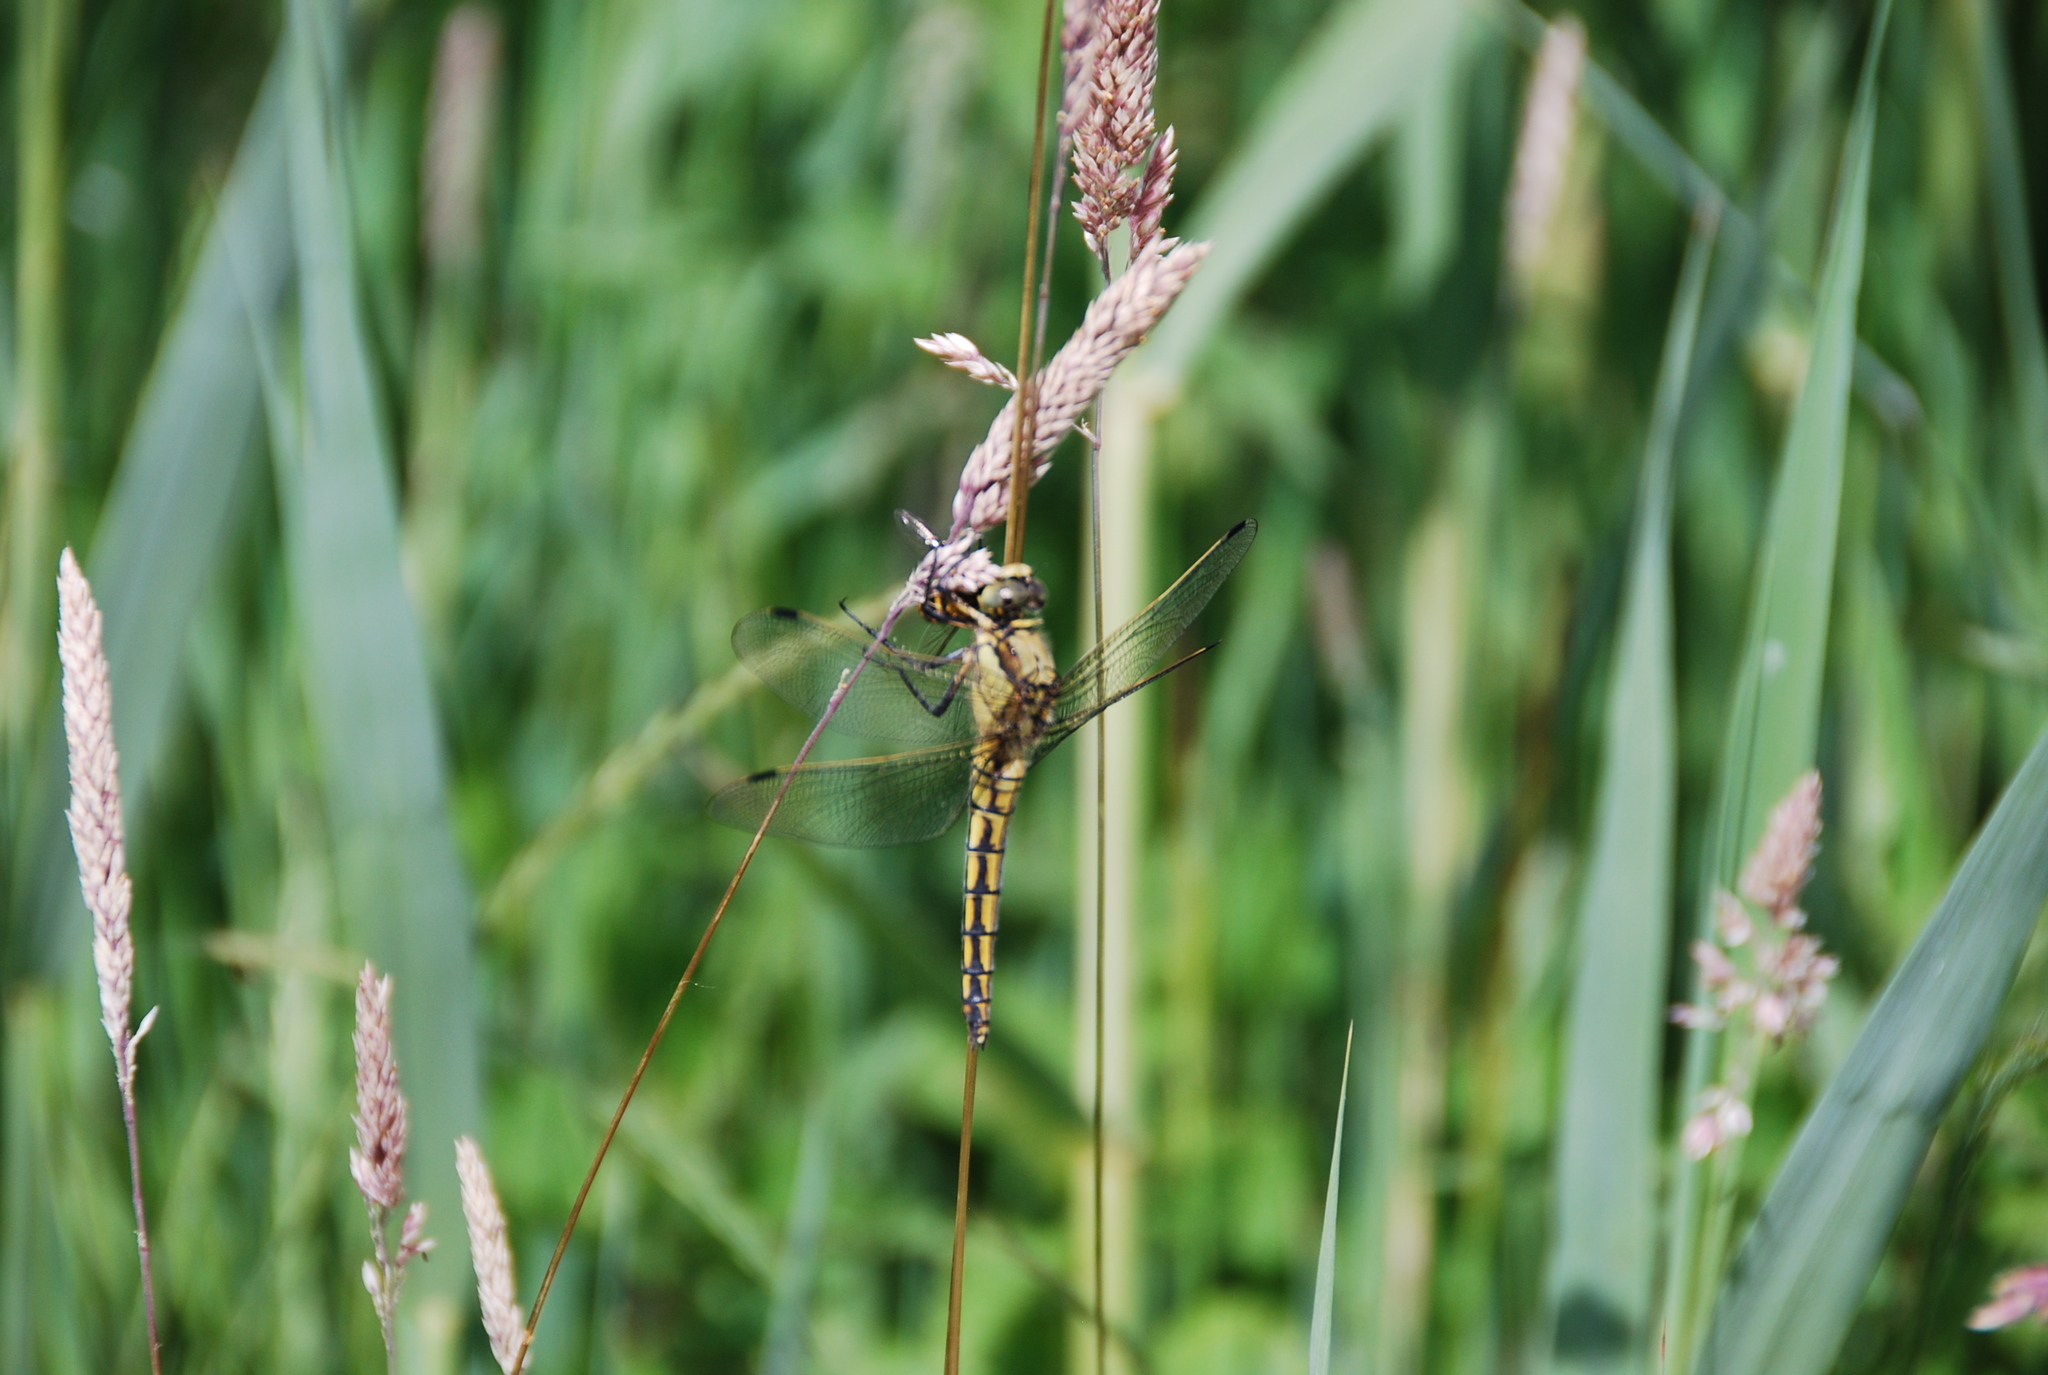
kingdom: Animalia
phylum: Arthropoda
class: Insecta
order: Odonata
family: Libellulidae
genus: Orthetrum
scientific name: Orthetrum cancellatum
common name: Black-tailed skimmer
